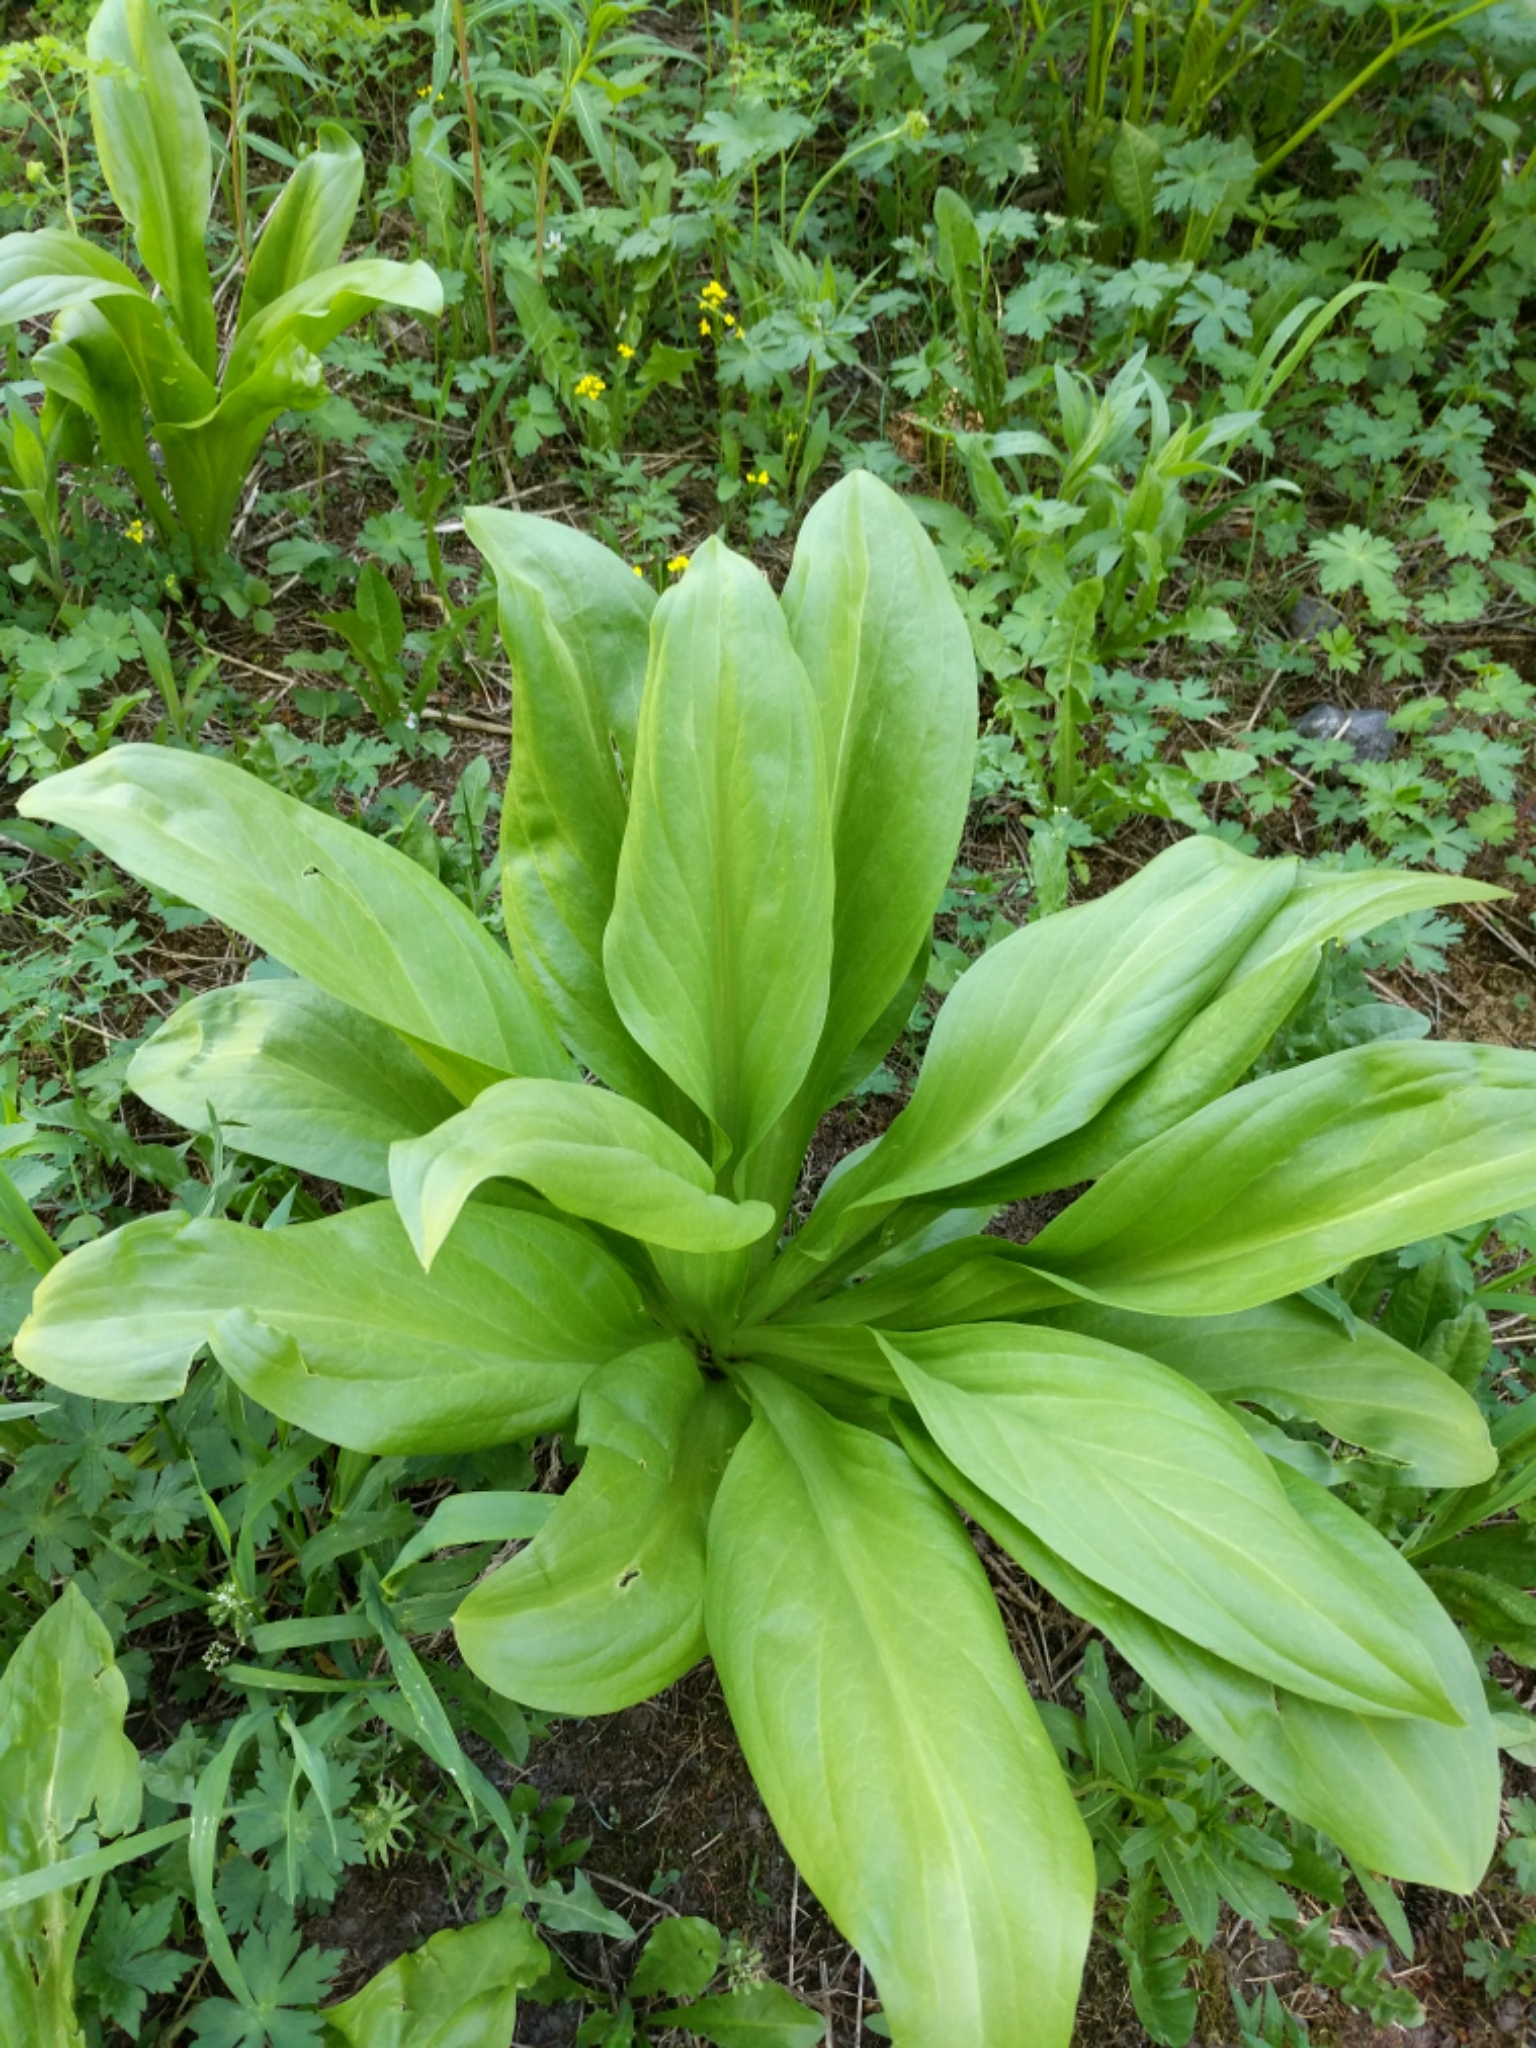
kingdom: Plantae
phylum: Tracheophyta
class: Magnoliopsida
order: Gentianales
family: Gentianaceae
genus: Frasera
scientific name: Frasera speciosa
